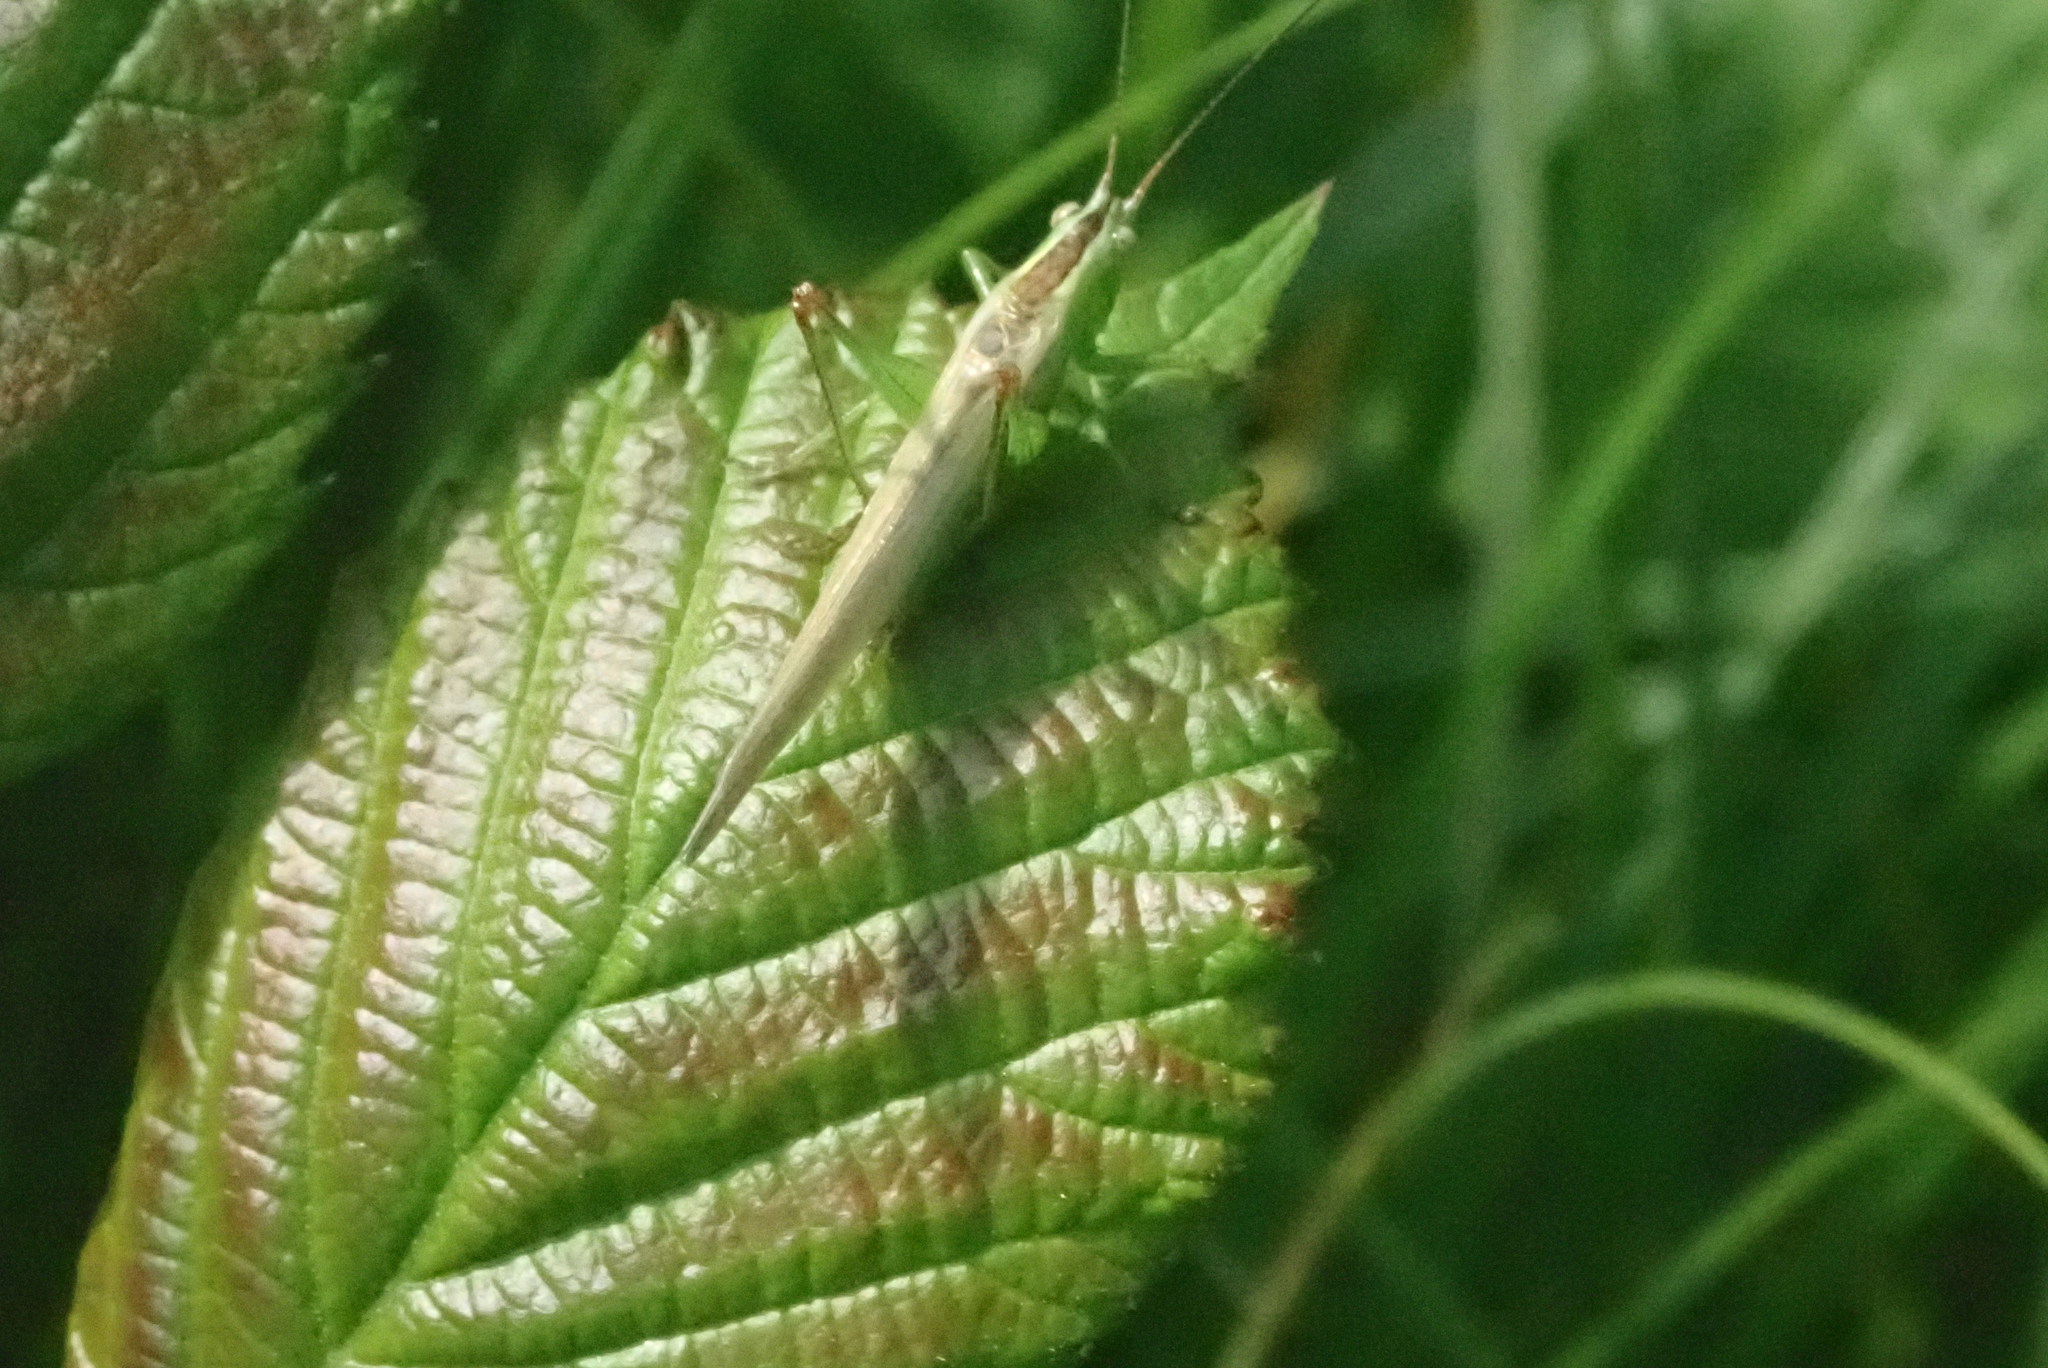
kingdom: Animalia
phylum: Arthropoda
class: Insecta
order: Orthoptera
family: Tettigoniidae
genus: Conocephalus
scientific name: Conocephalus fuscus
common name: Long-winged conehead
